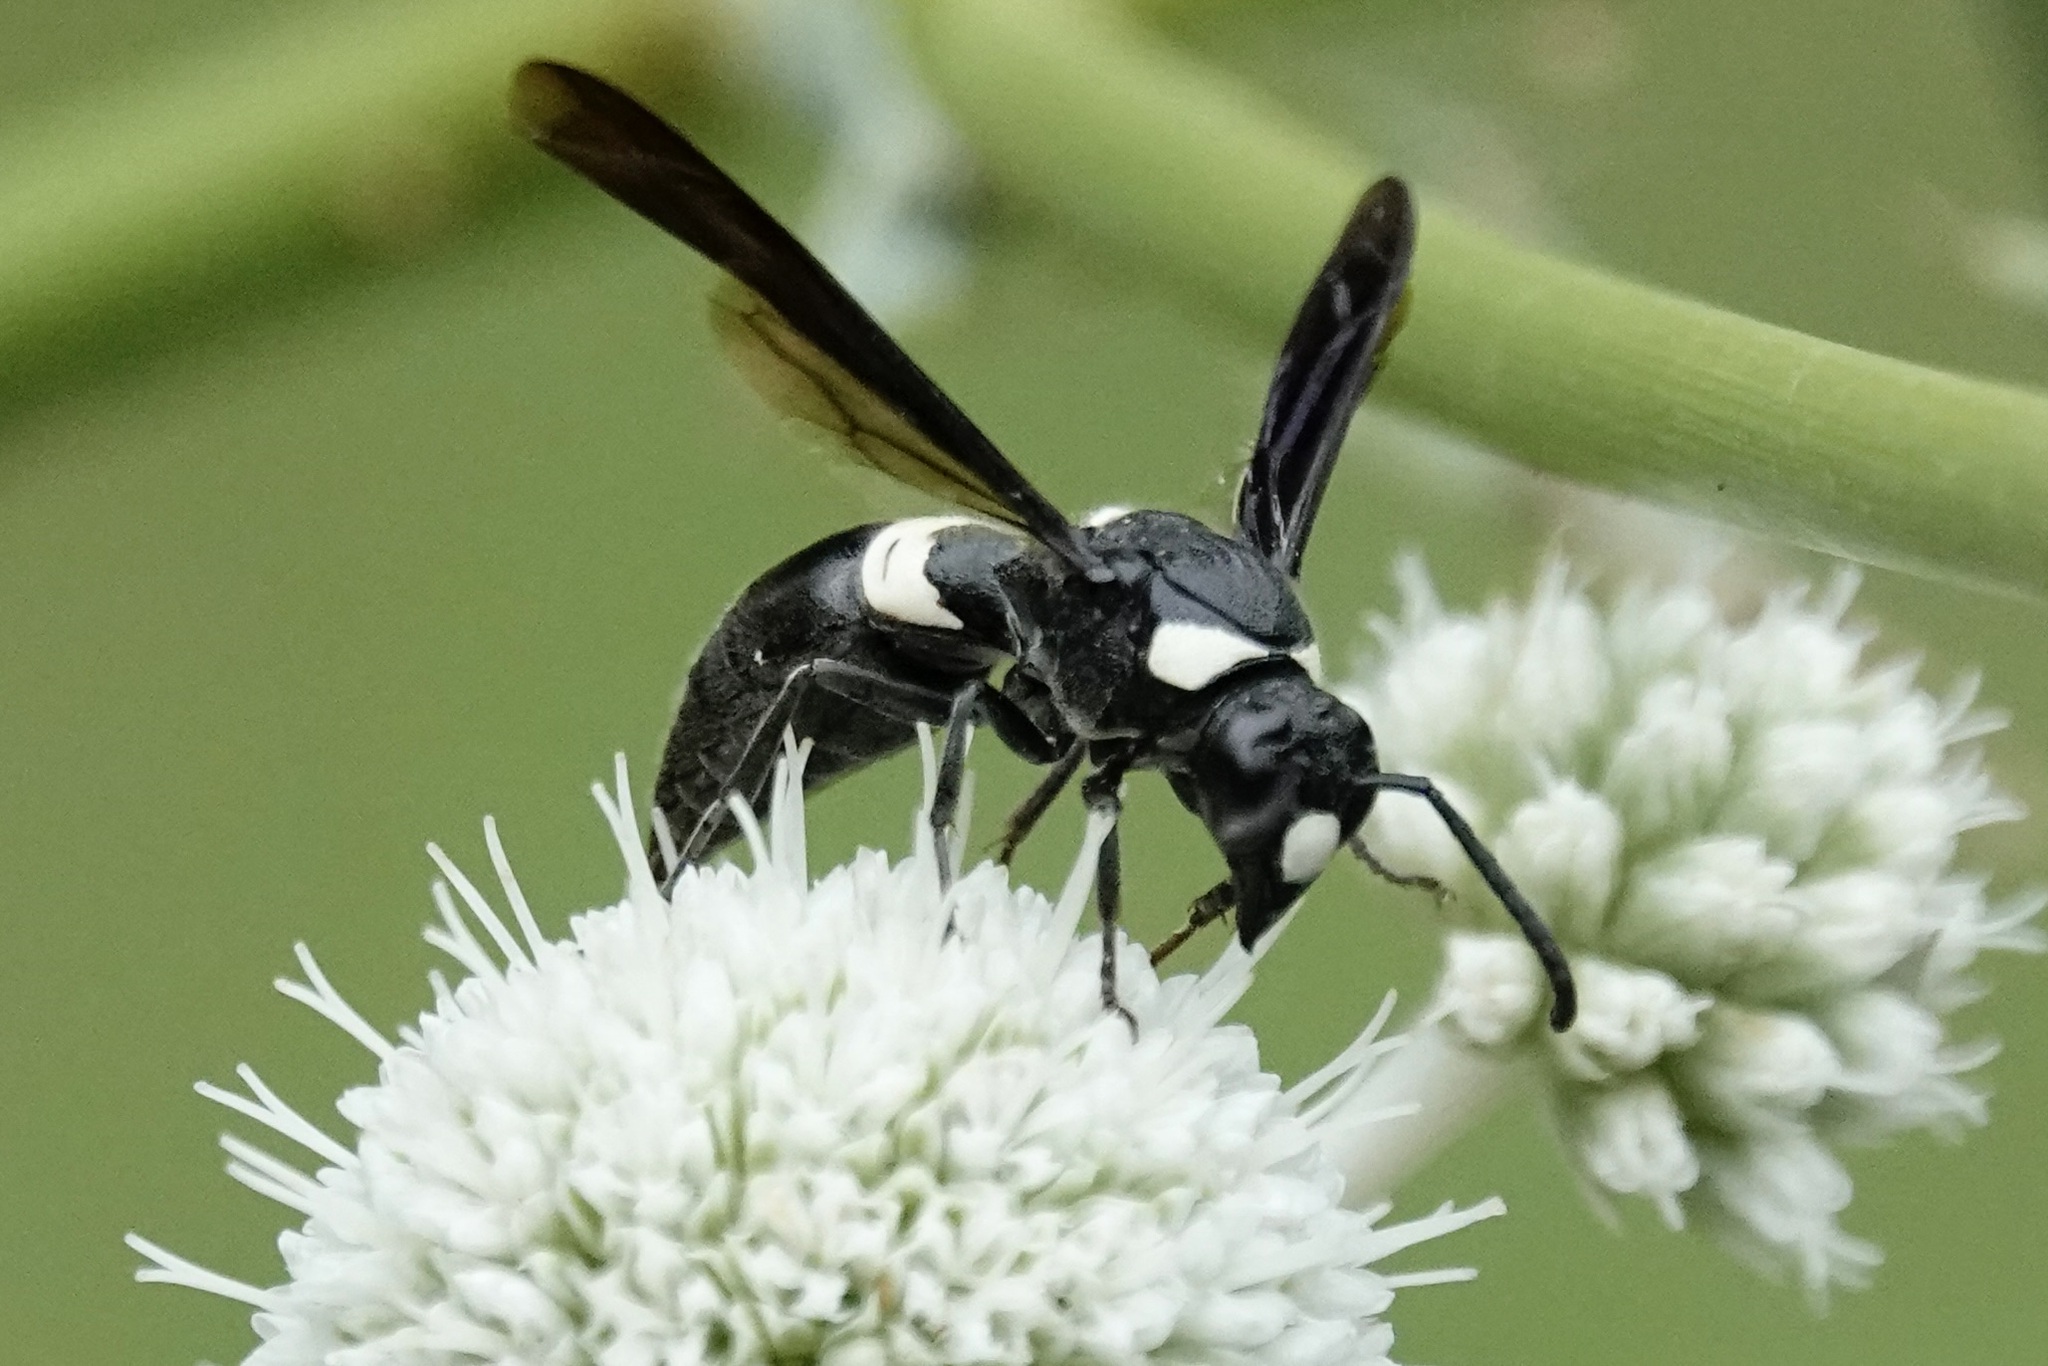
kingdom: Animalia
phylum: Arthropoda
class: Insecta
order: Hymenoptera
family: Eumenidae
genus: Monobia
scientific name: Monobia quadridens
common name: Four-toothed mason wasp
